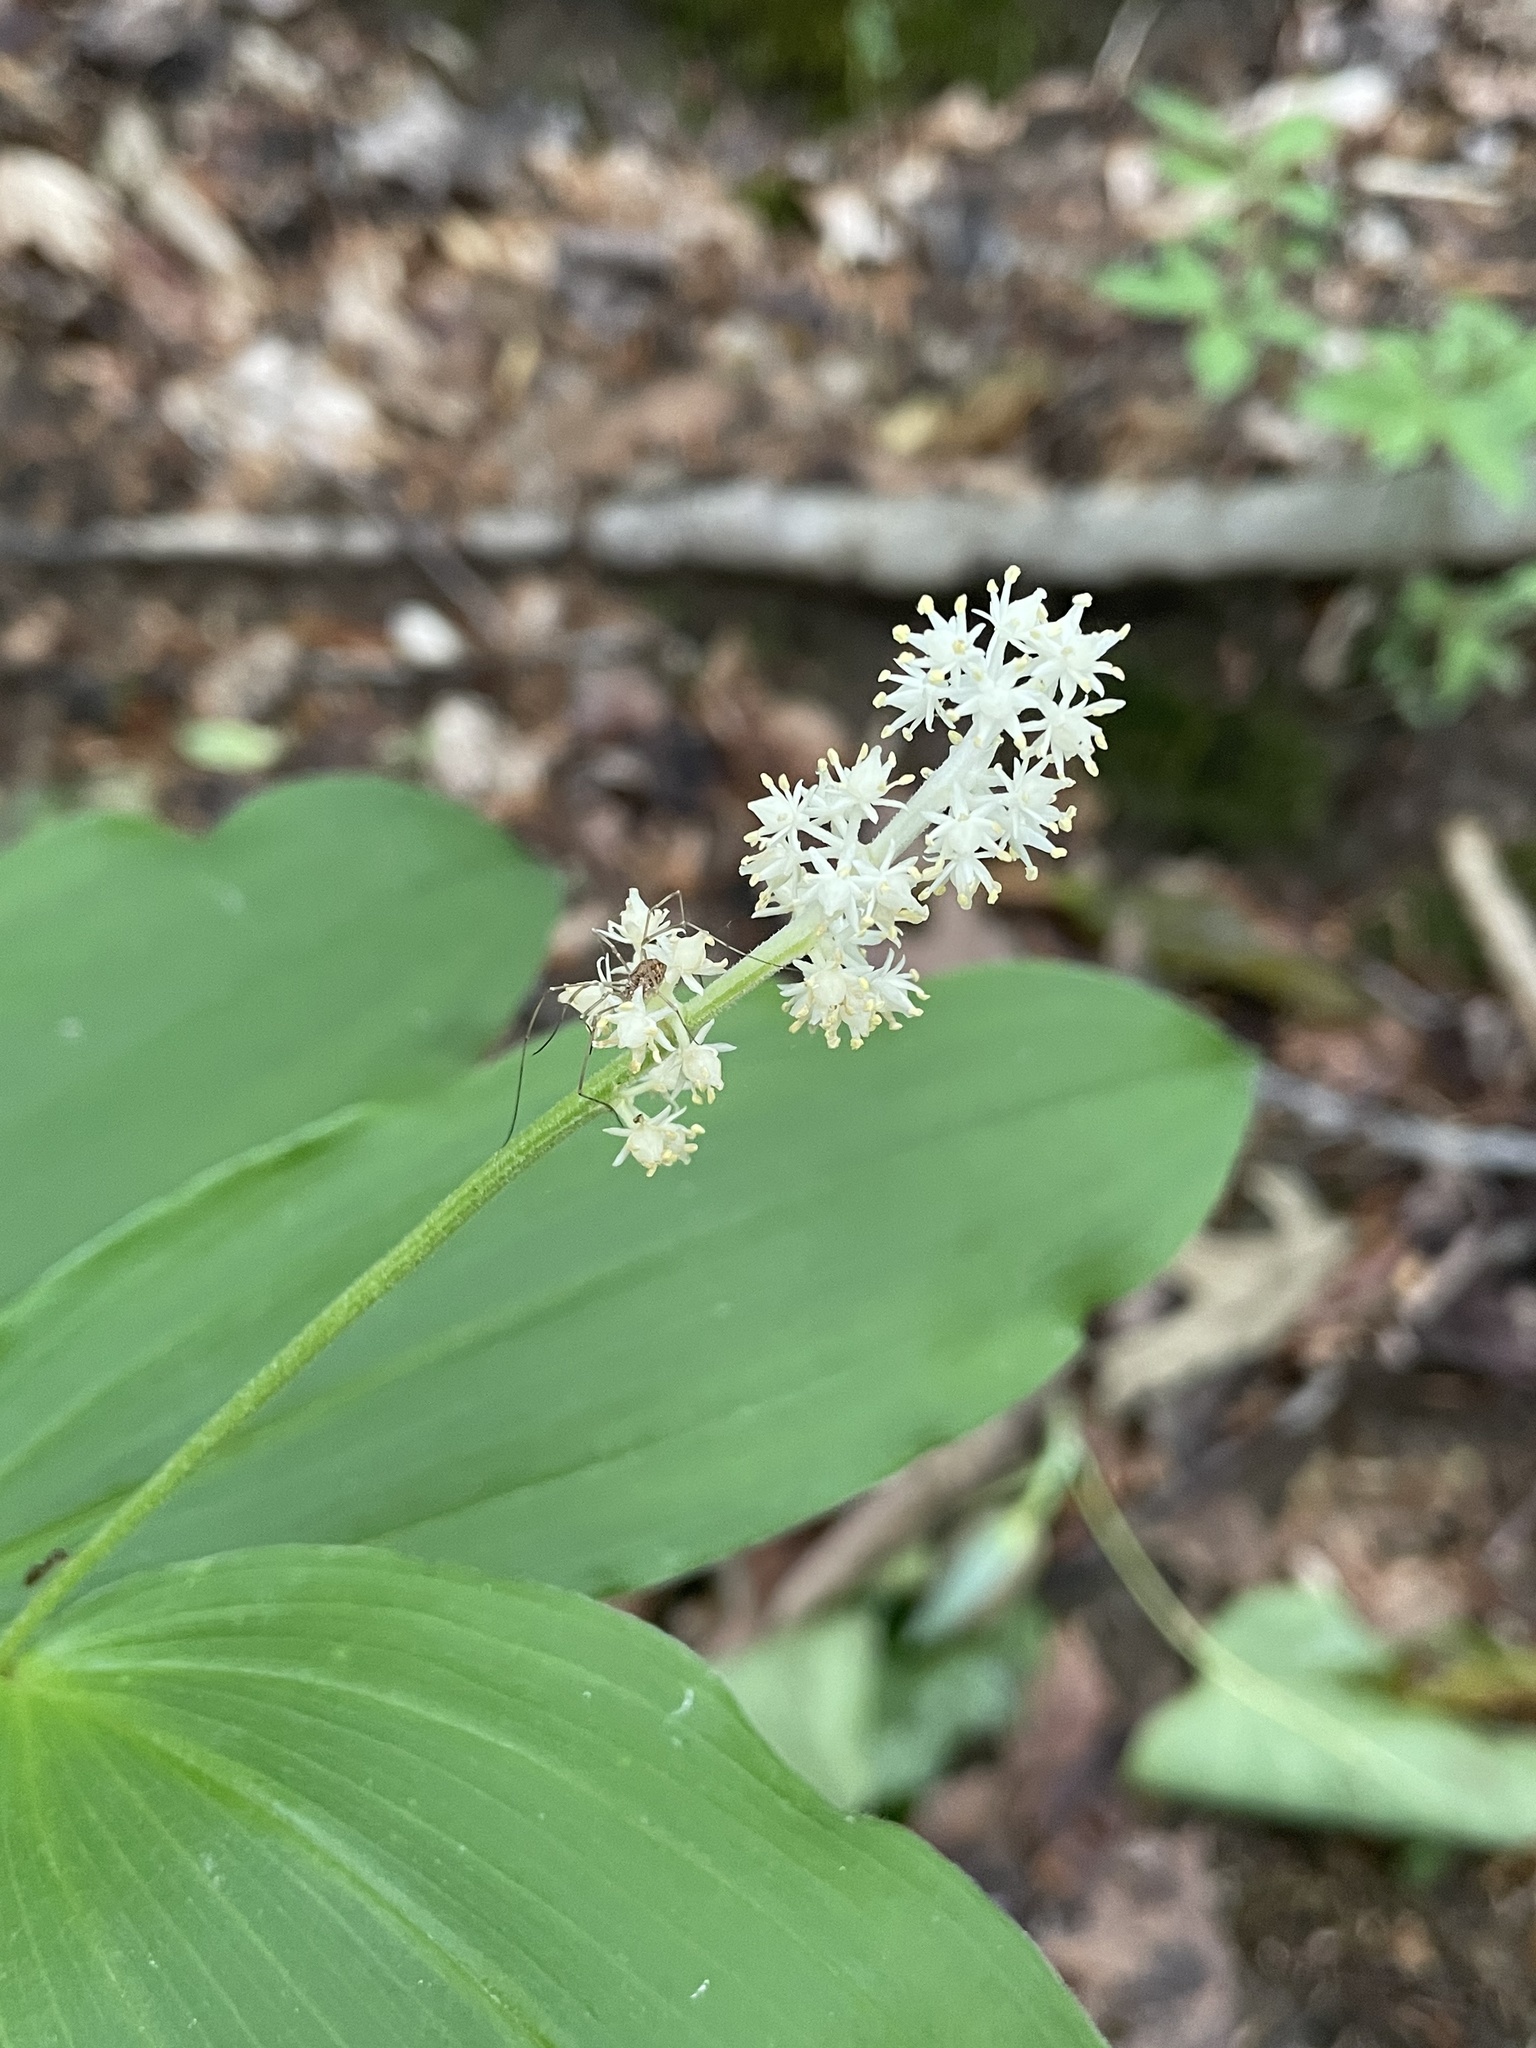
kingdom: Plantae
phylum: Tracheophyta
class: Liliopsida
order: Asparagales
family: Asparagaceae
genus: Maianthemum
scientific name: Maianthemum racemosum
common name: False spikenard
